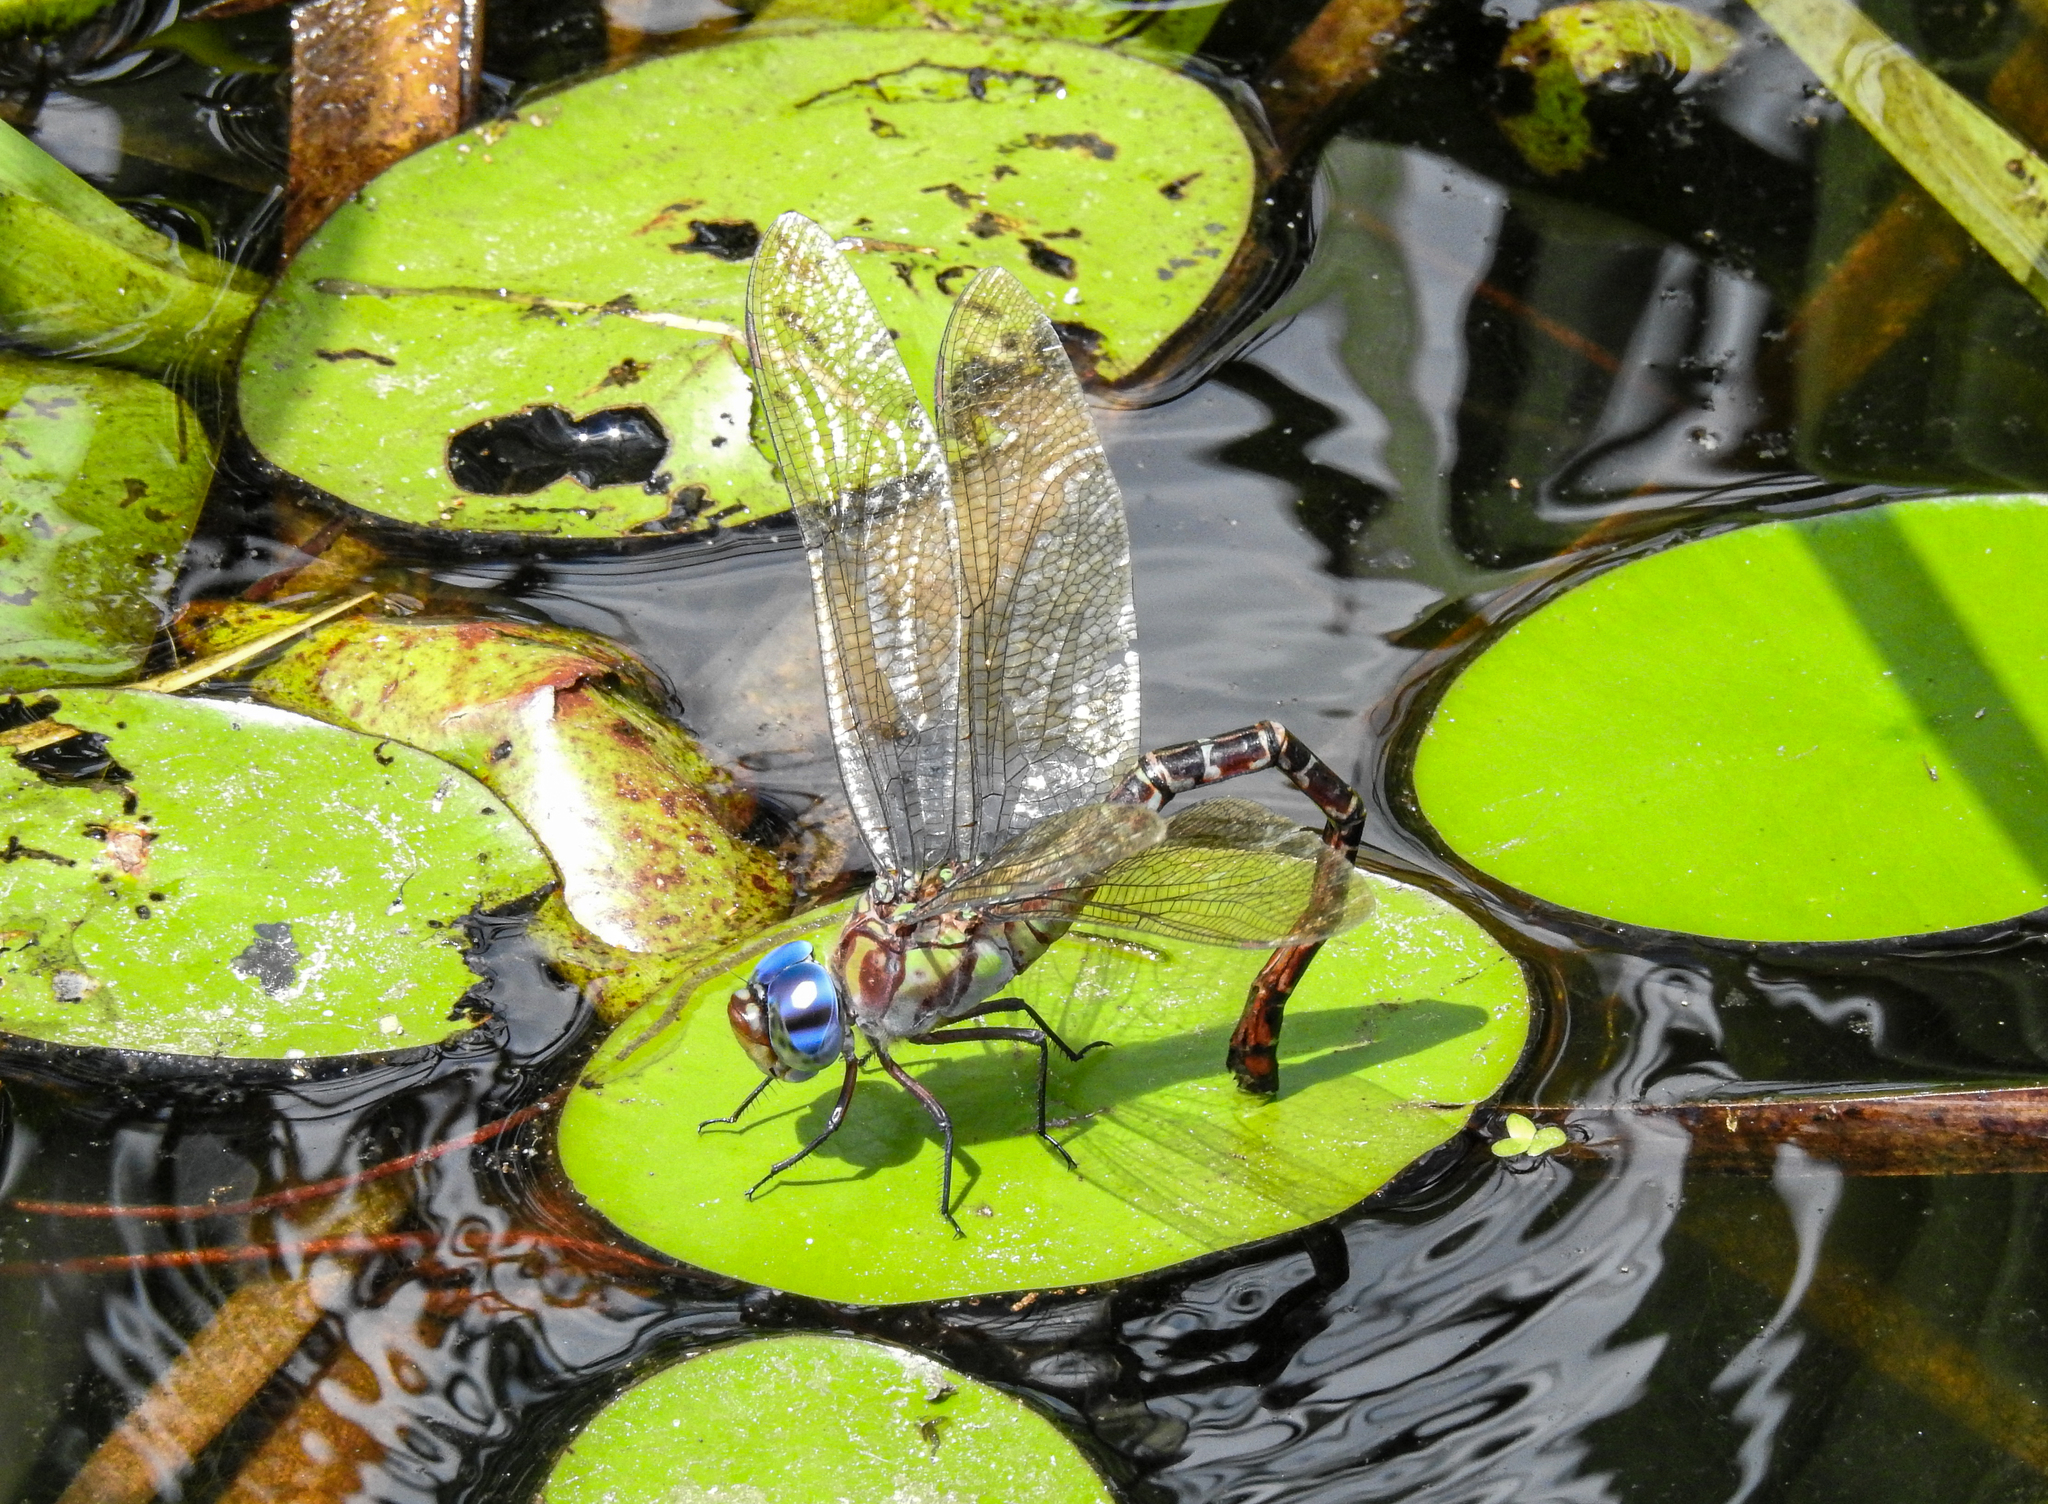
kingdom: Animalia
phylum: Arthropoda
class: Insecta
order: Odonata
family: Aeshnidae
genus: Coryphaeschna
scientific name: Coryphaeschna ingens
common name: Regal darner
